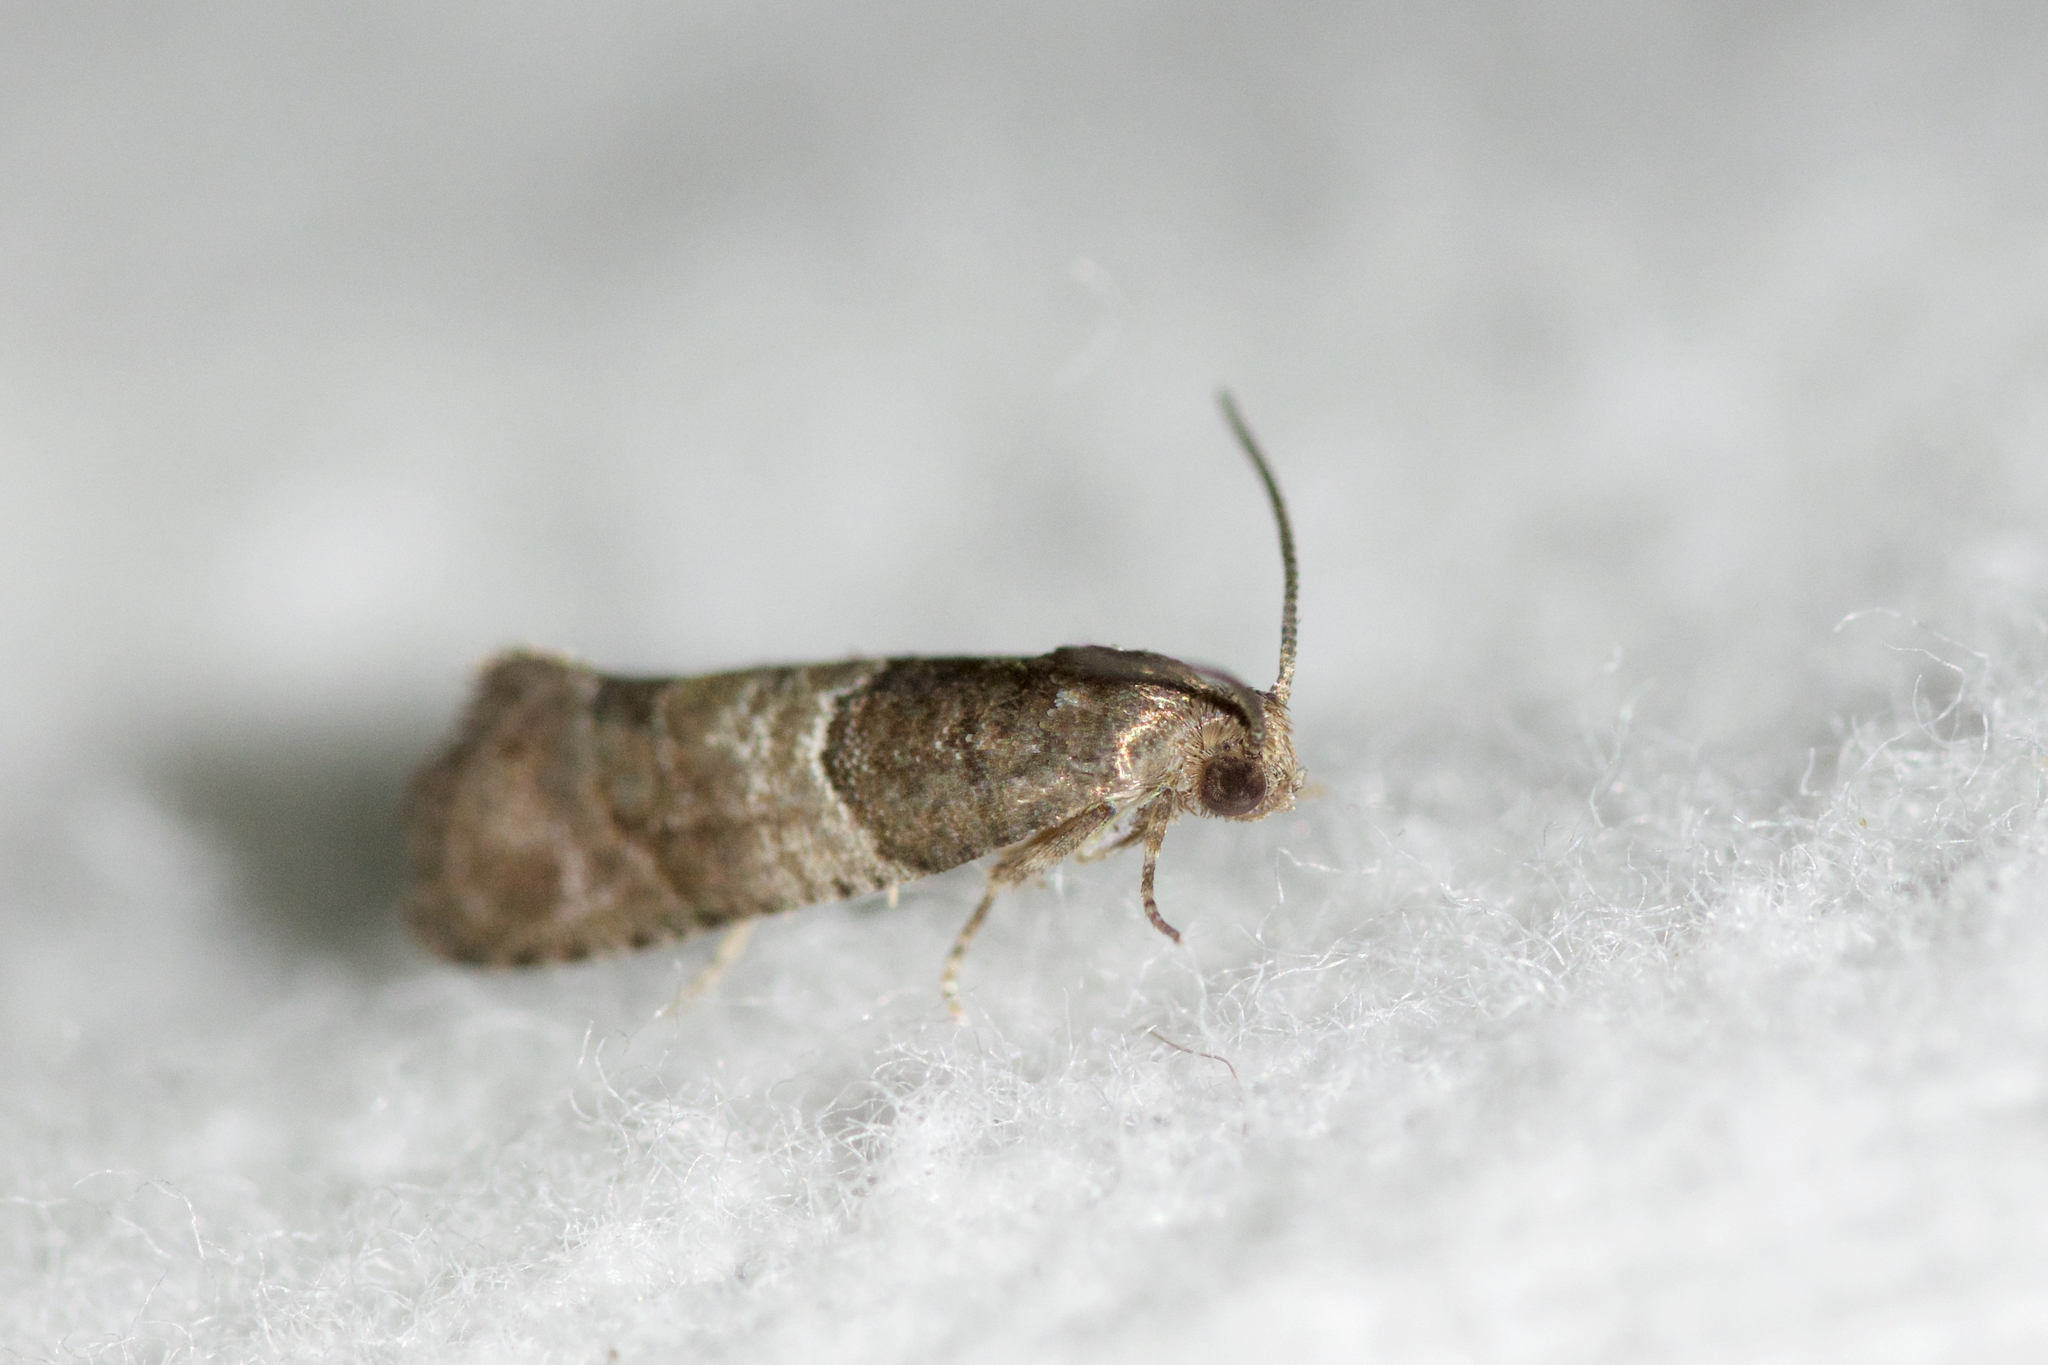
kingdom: Animalia
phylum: Arthropoda
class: Insecta
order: Lepidoptera
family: Tortricidae
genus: Larisa
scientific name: Larisa subsolana
